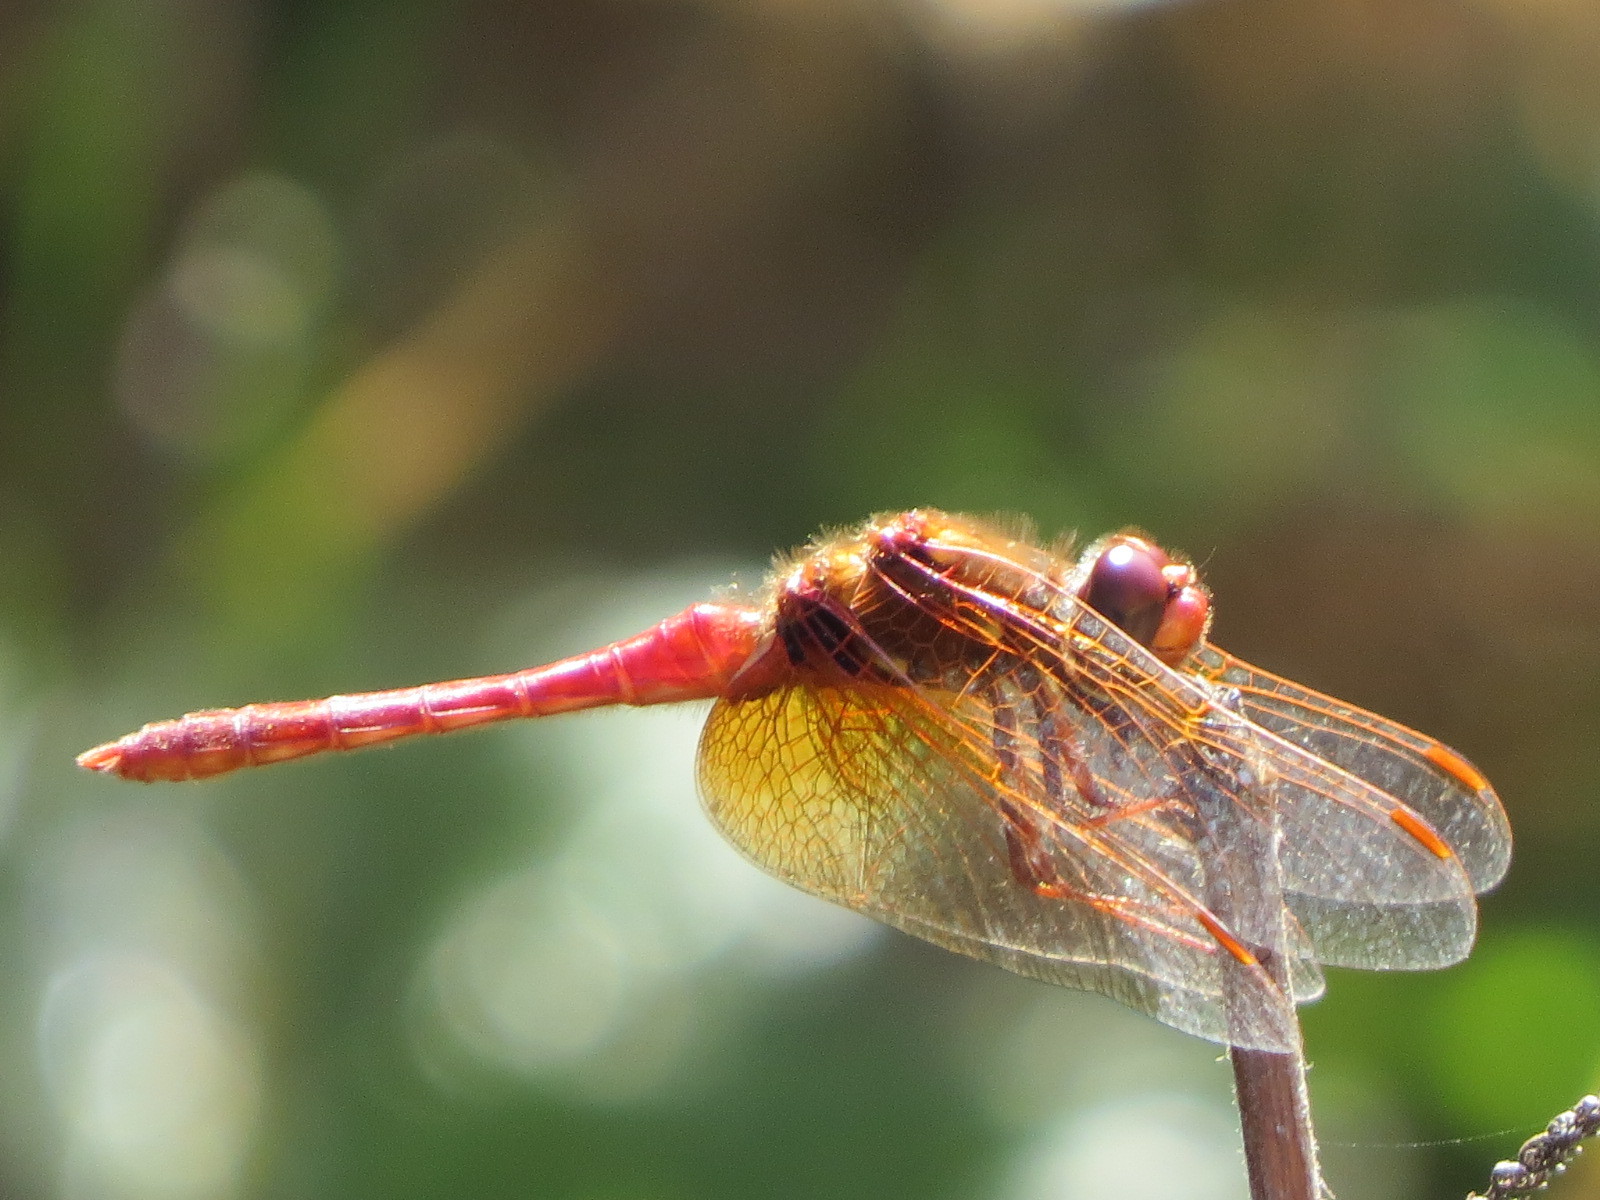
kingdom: Animalia
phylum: Arthropoda
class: Insecta
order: Odonata
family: Libellulidae
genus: Sympetrum
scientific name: Sympetrum illotum
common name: Cardinal meadowhawk
